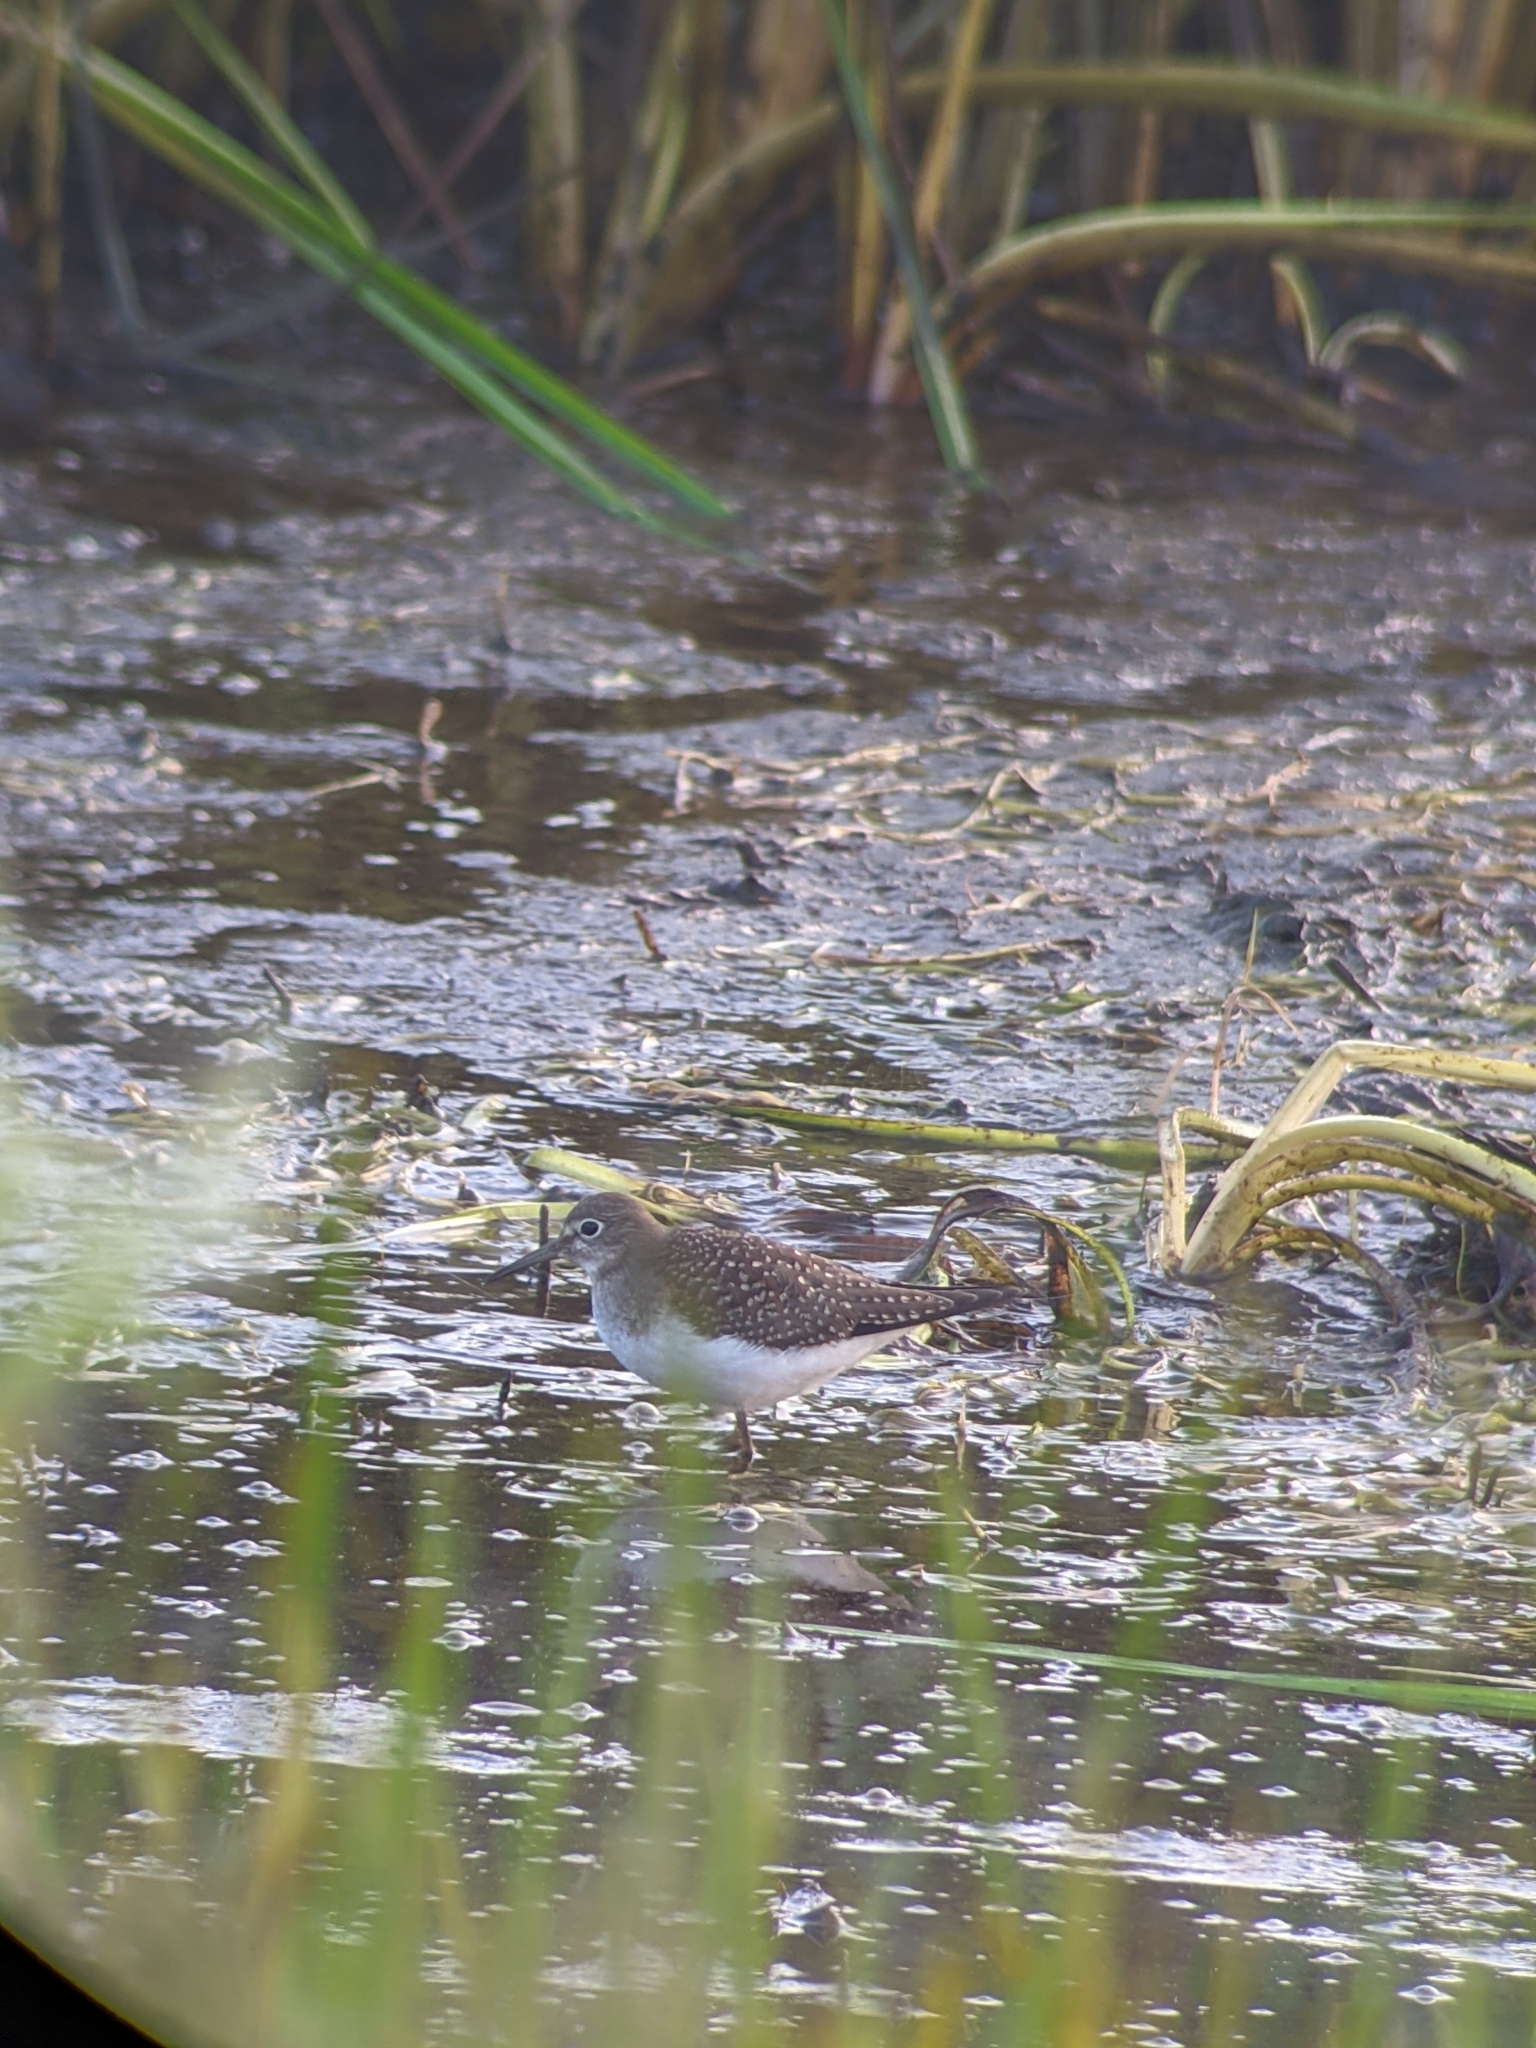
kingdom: Animalia
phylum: Chordata
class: Aves
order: Charadriiformes
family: Scolopacidae
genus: Tringa
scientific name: Tringa solitaria
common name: Solitary sandpiper
